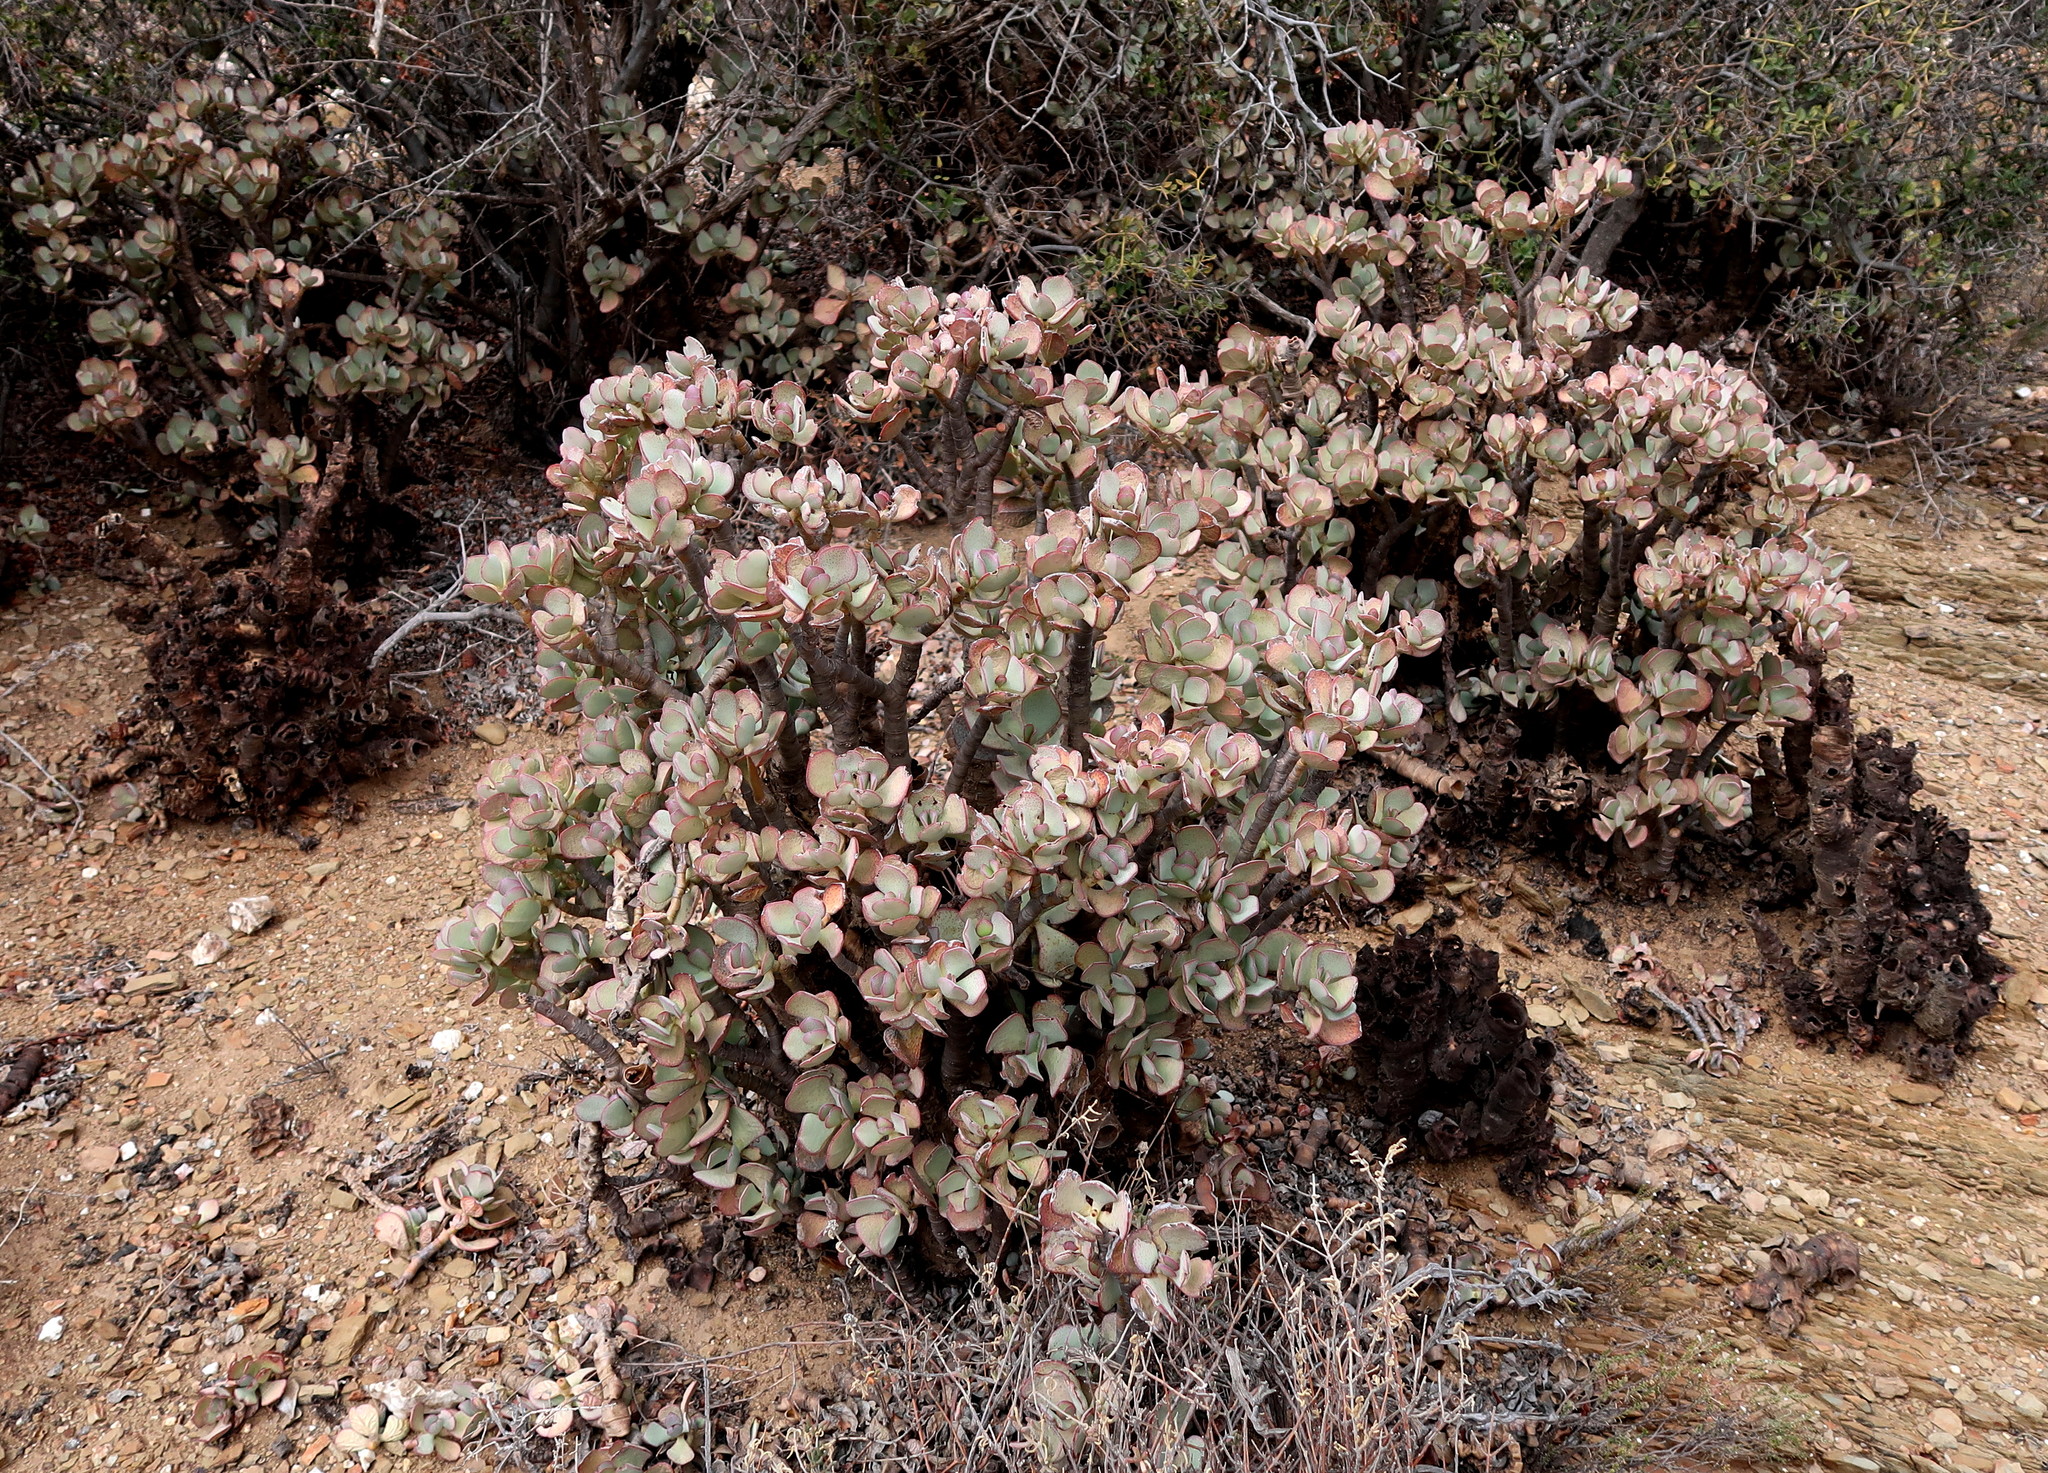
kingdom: Plantae
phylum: Tracheophyta
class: Magnoliopsida
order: Saxifragales
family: Crassulaceae
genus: Crassula
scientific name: Crassula arborescens
